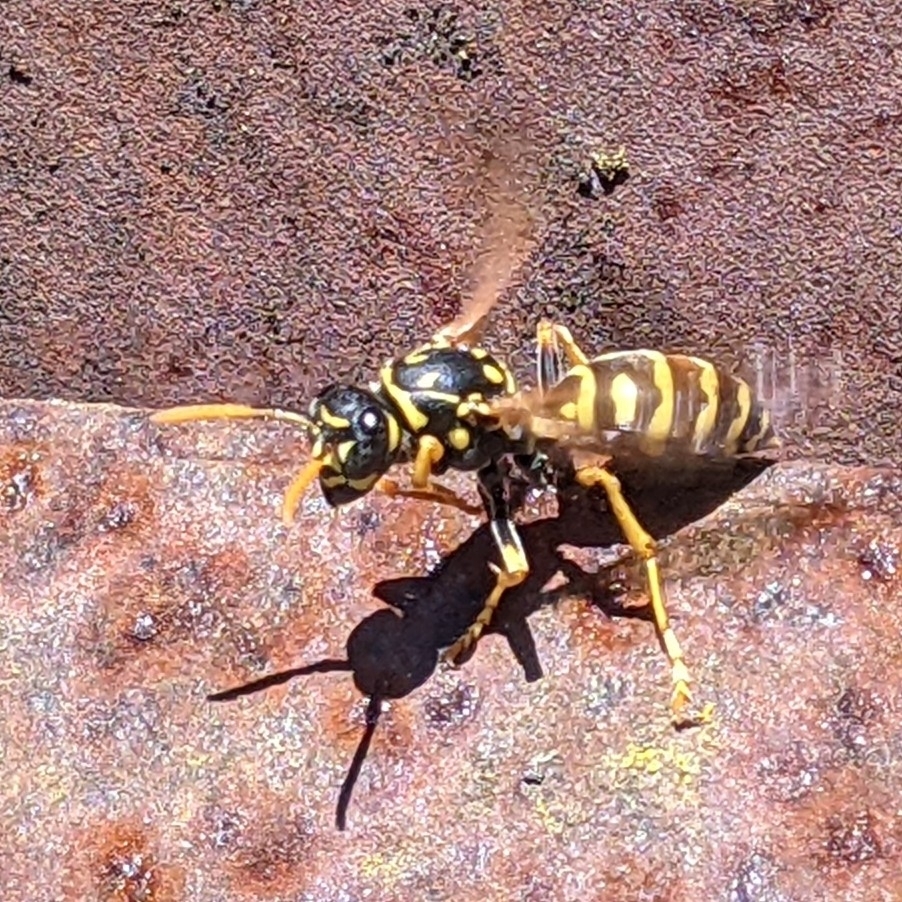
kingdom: Animalia
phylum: Arthropoda
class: Insecta
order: Hymenoptera
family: Eumenidae
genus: Polistes
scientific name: Polistes dominula
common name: Paper wasp
